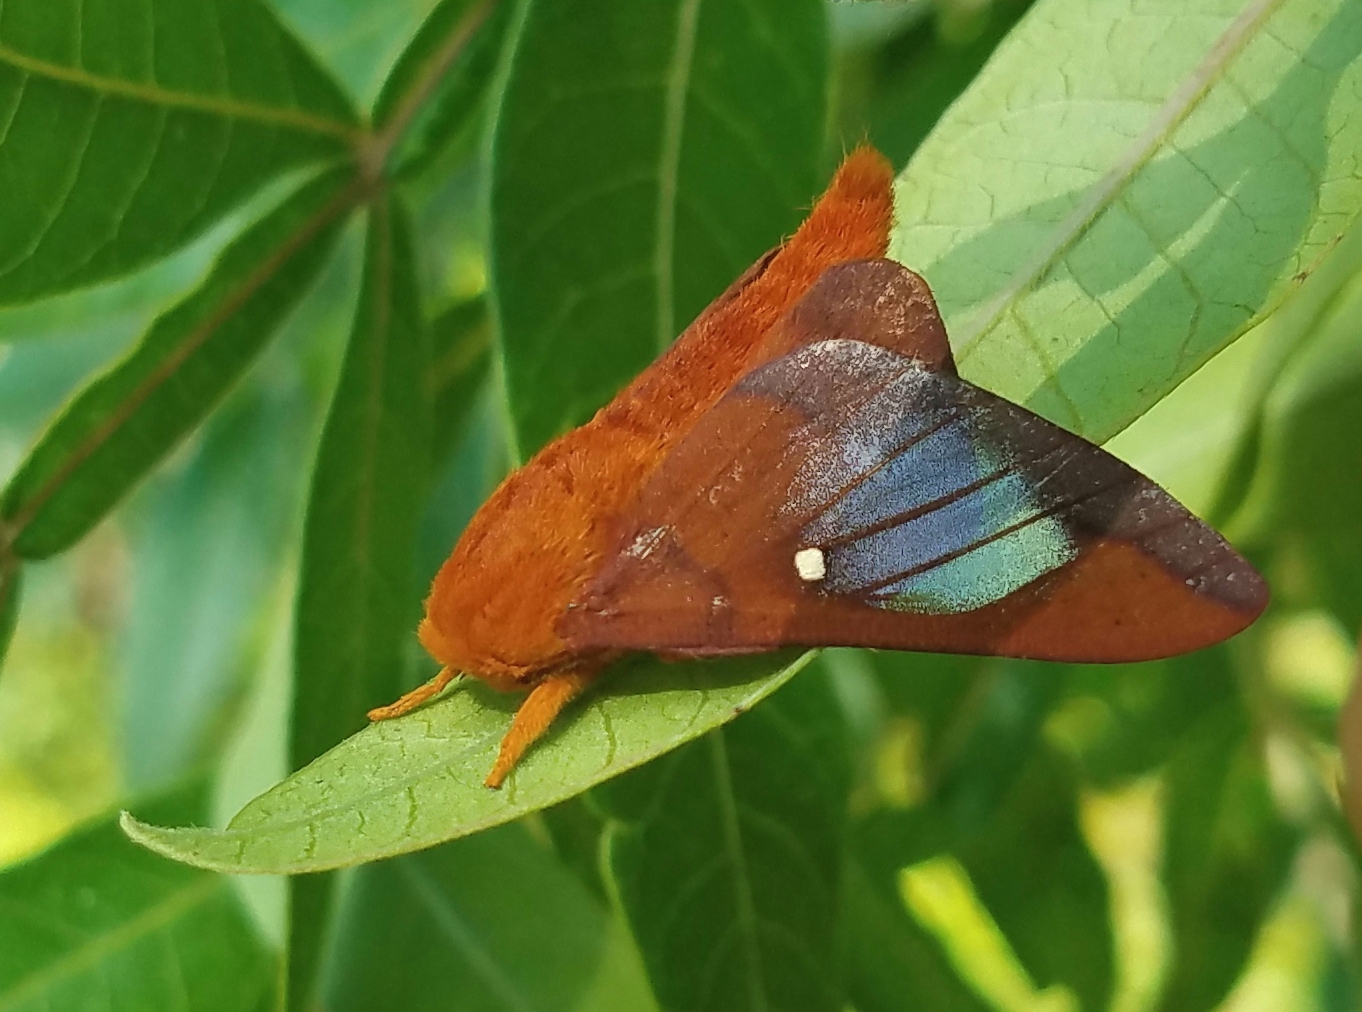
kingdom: Animalia
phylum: Arthropoda
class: Insecta
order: Lepidoptera
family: Saturniidae
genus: Anisota
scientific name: Anisota virginiensis
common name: Pink striped oakworm moth
